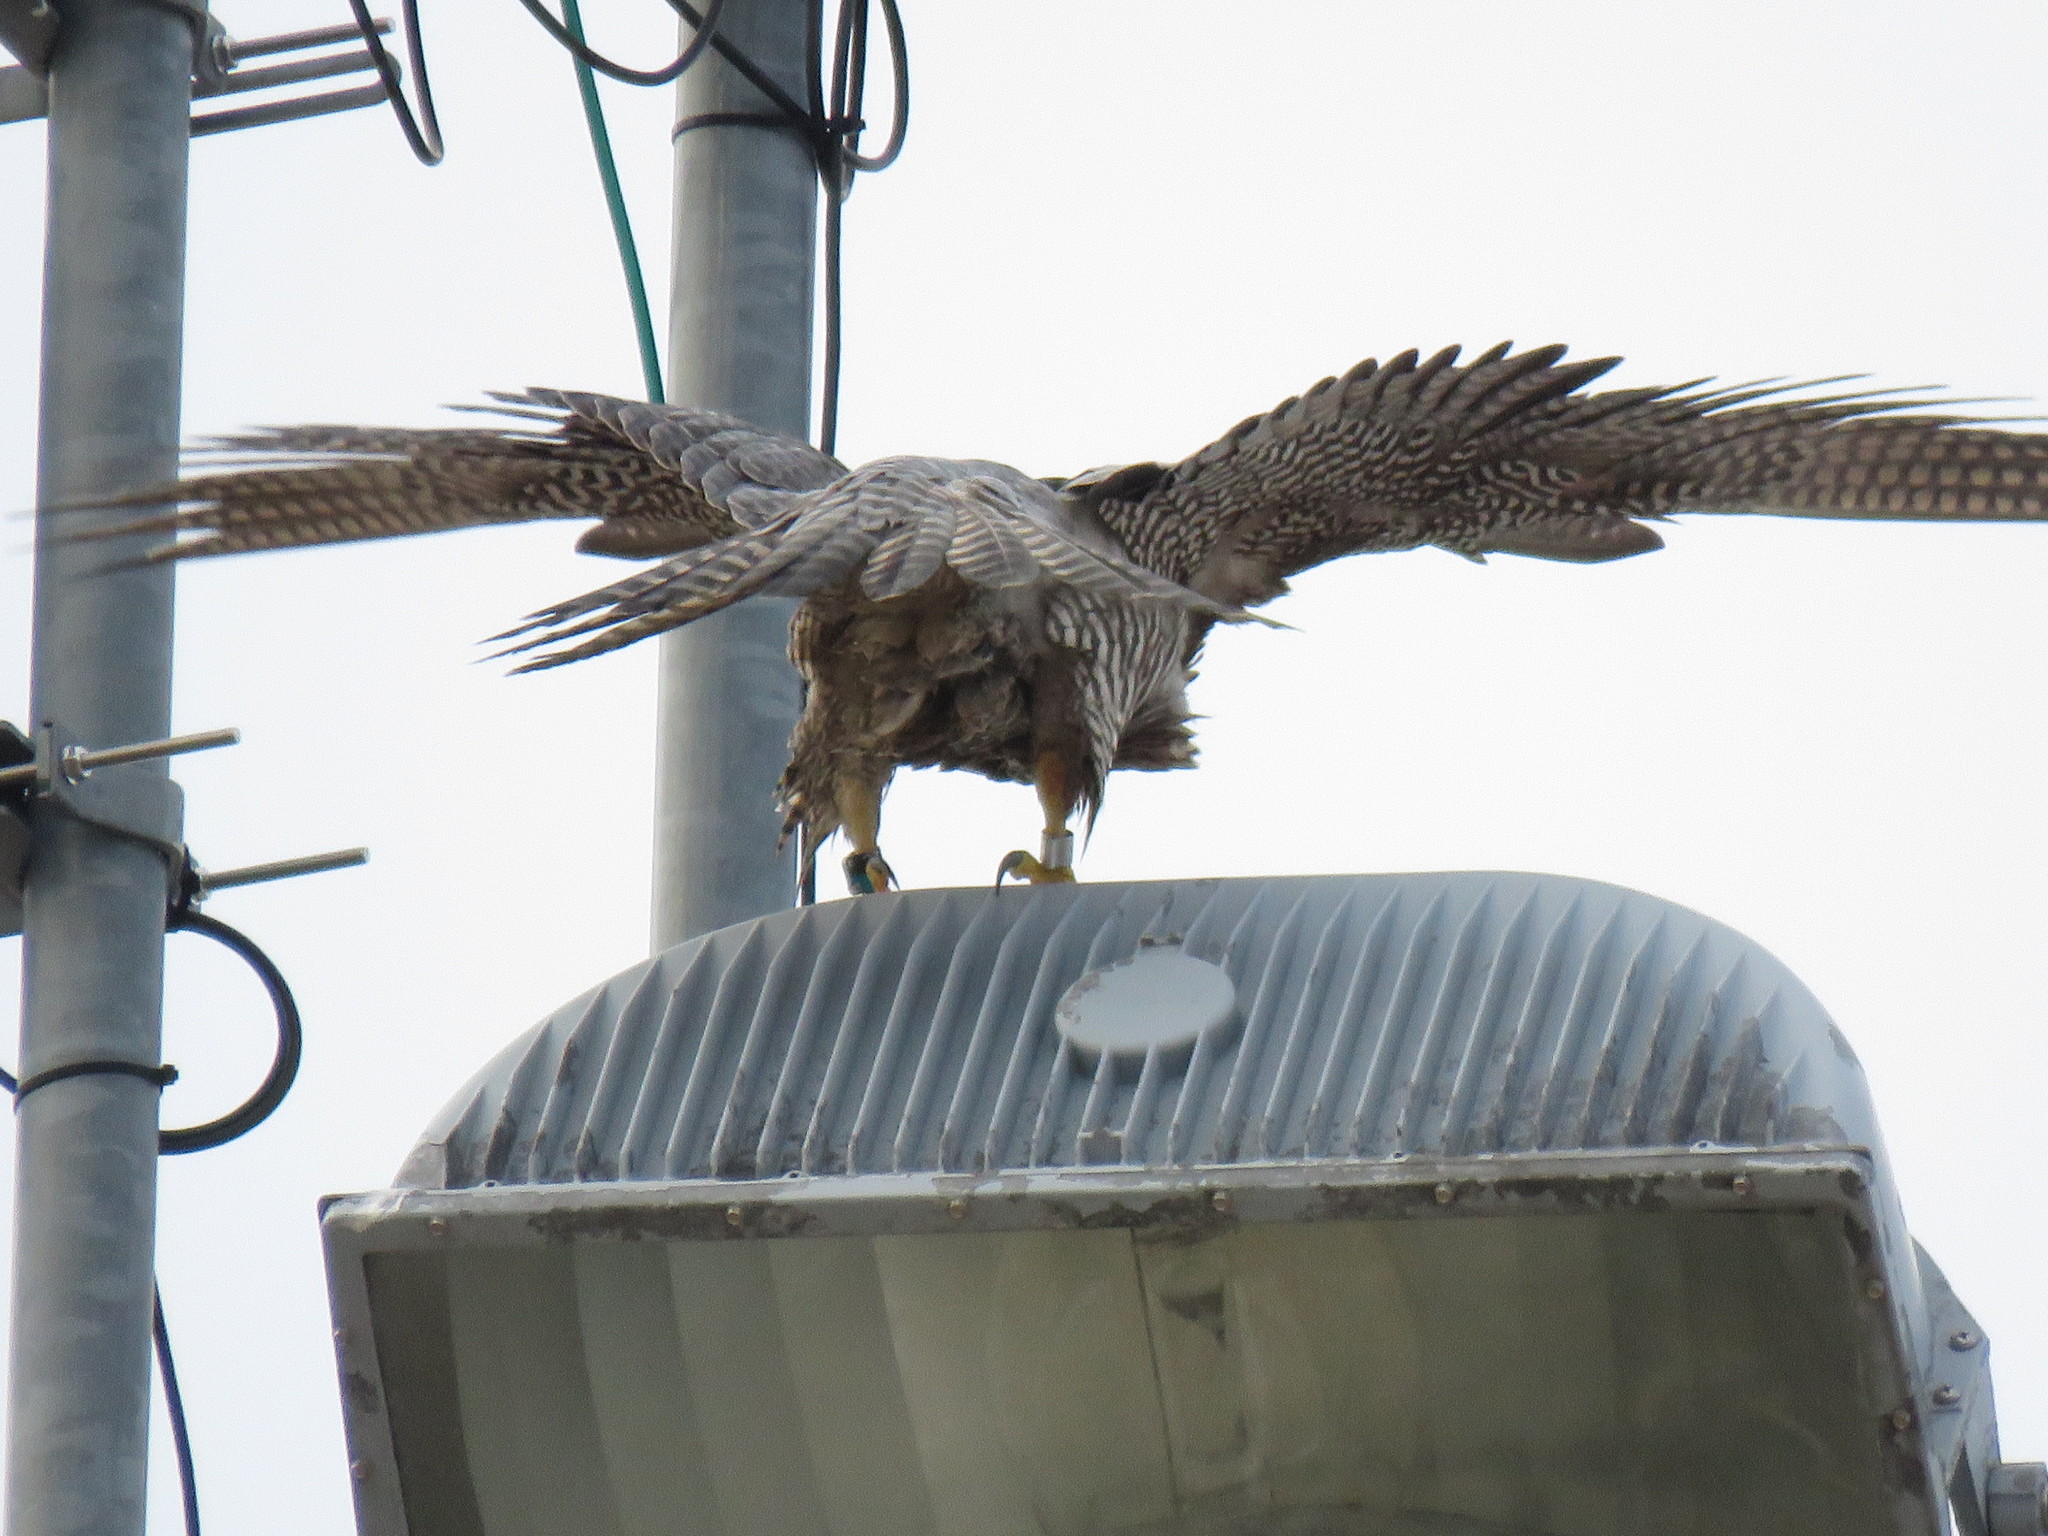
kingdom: Animalia
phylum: Chordata
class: Aves
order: Falconiformes
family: Falconidae
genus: Falco
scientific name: Falco peregrinus
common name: Peregrine falcon
